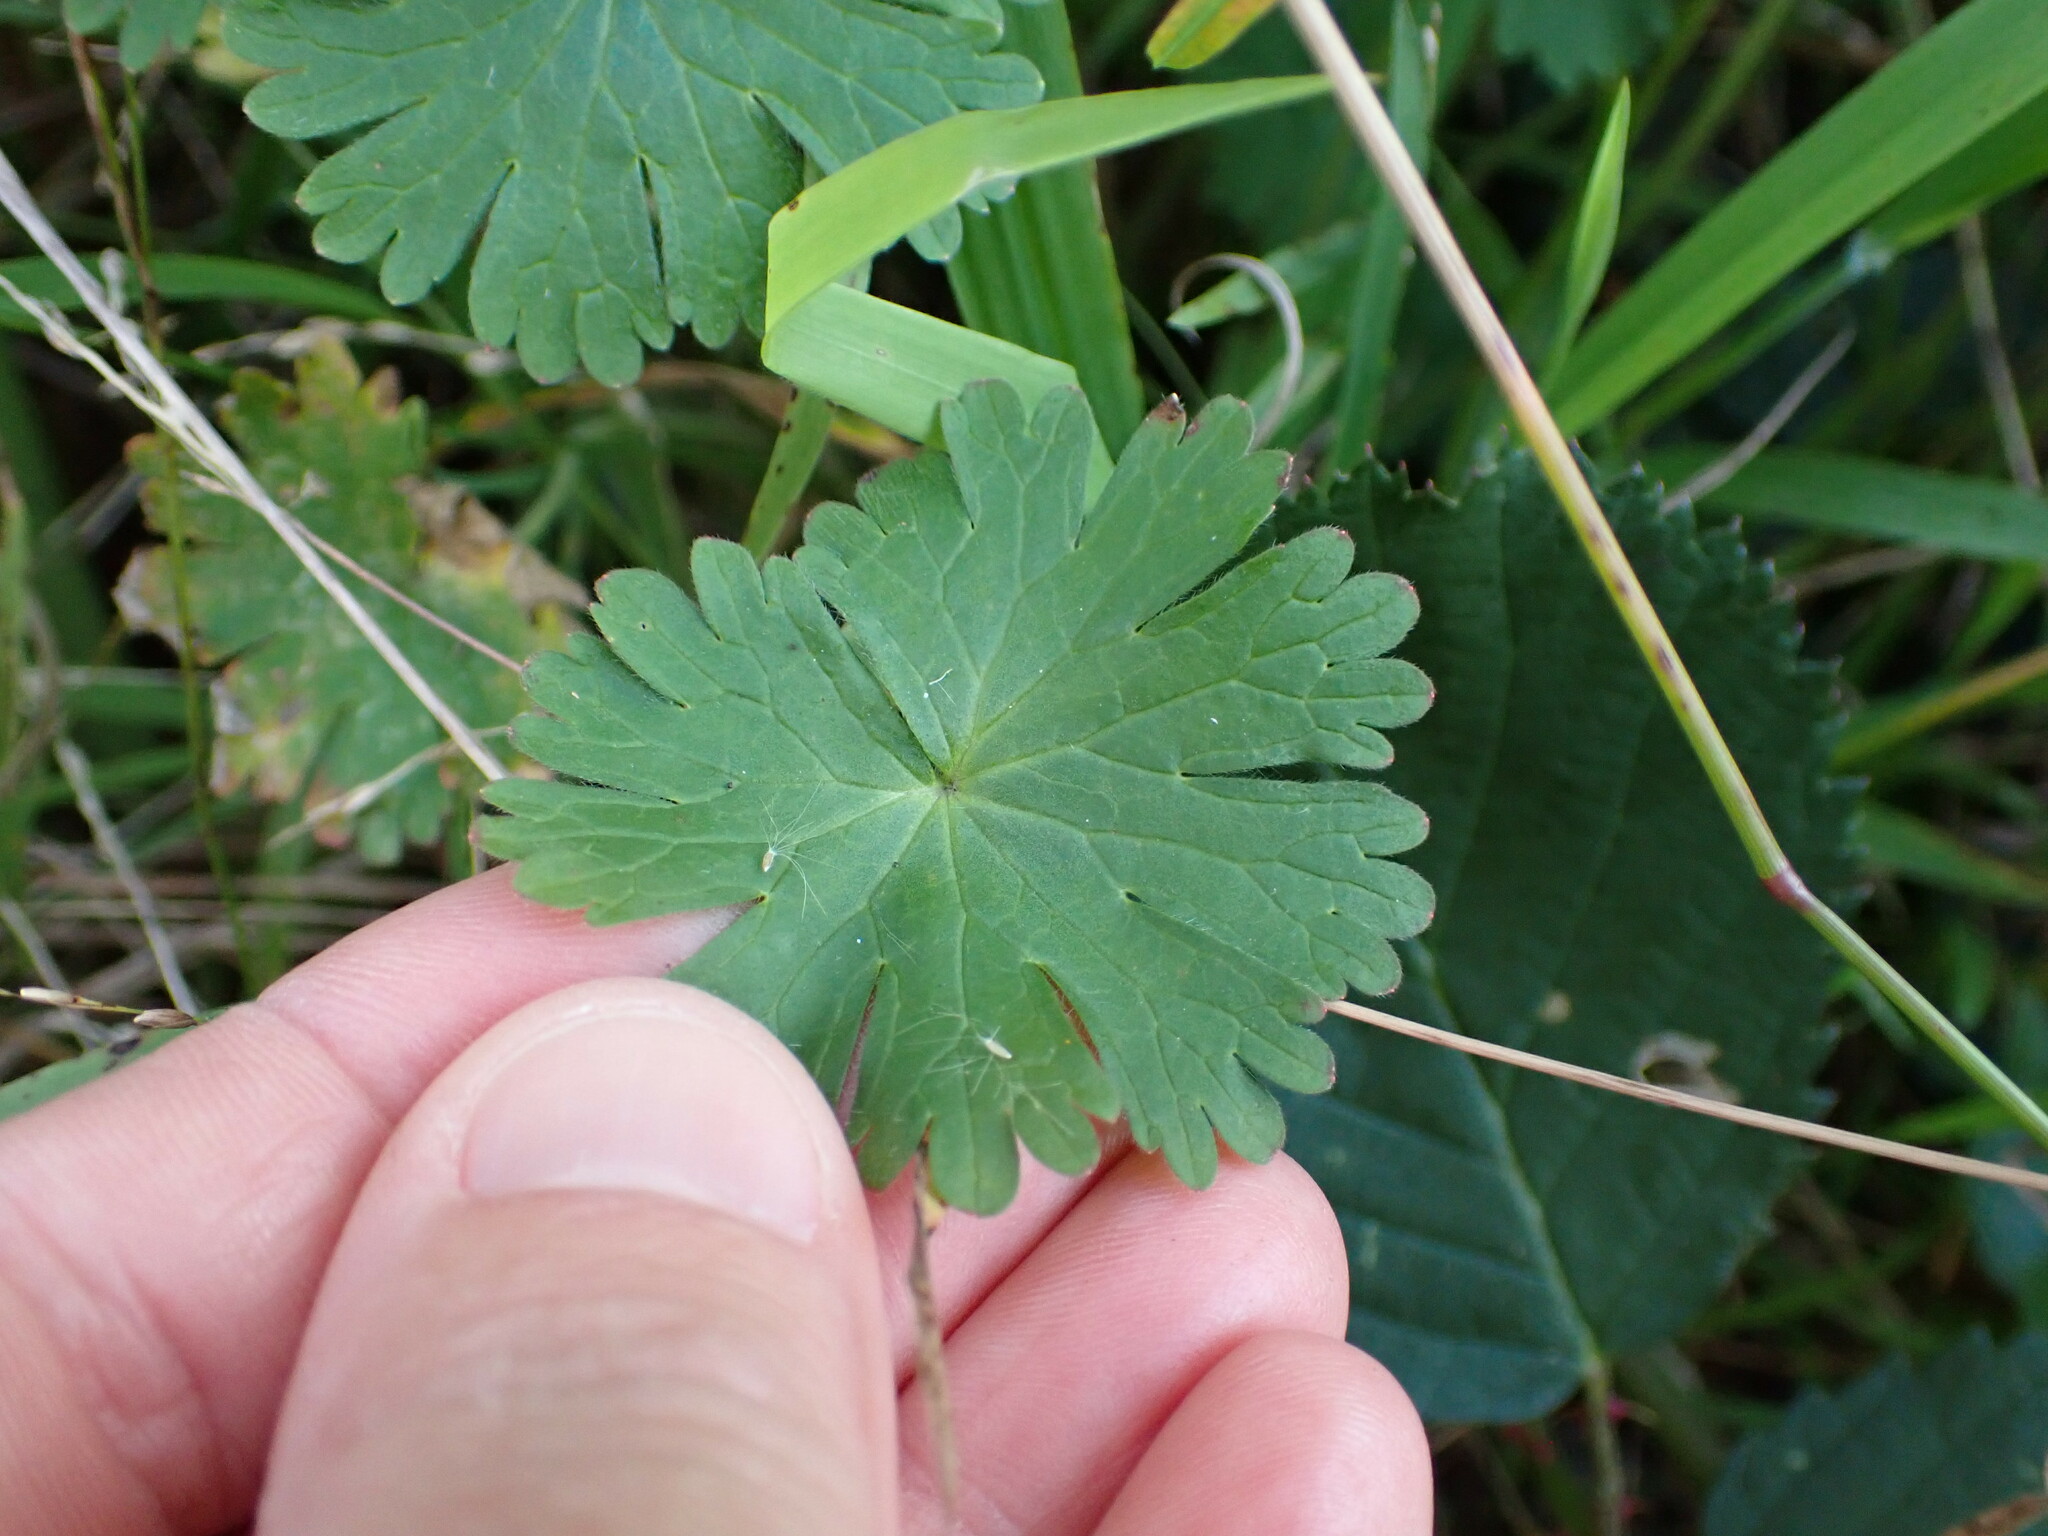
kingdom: Plantae
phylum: Tracheophyta
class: Magnoliopsida
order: Geraniales
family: Geraniaceae
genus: Geranium
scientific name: Geranium molle
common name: Dove's-foot crane's-bill
